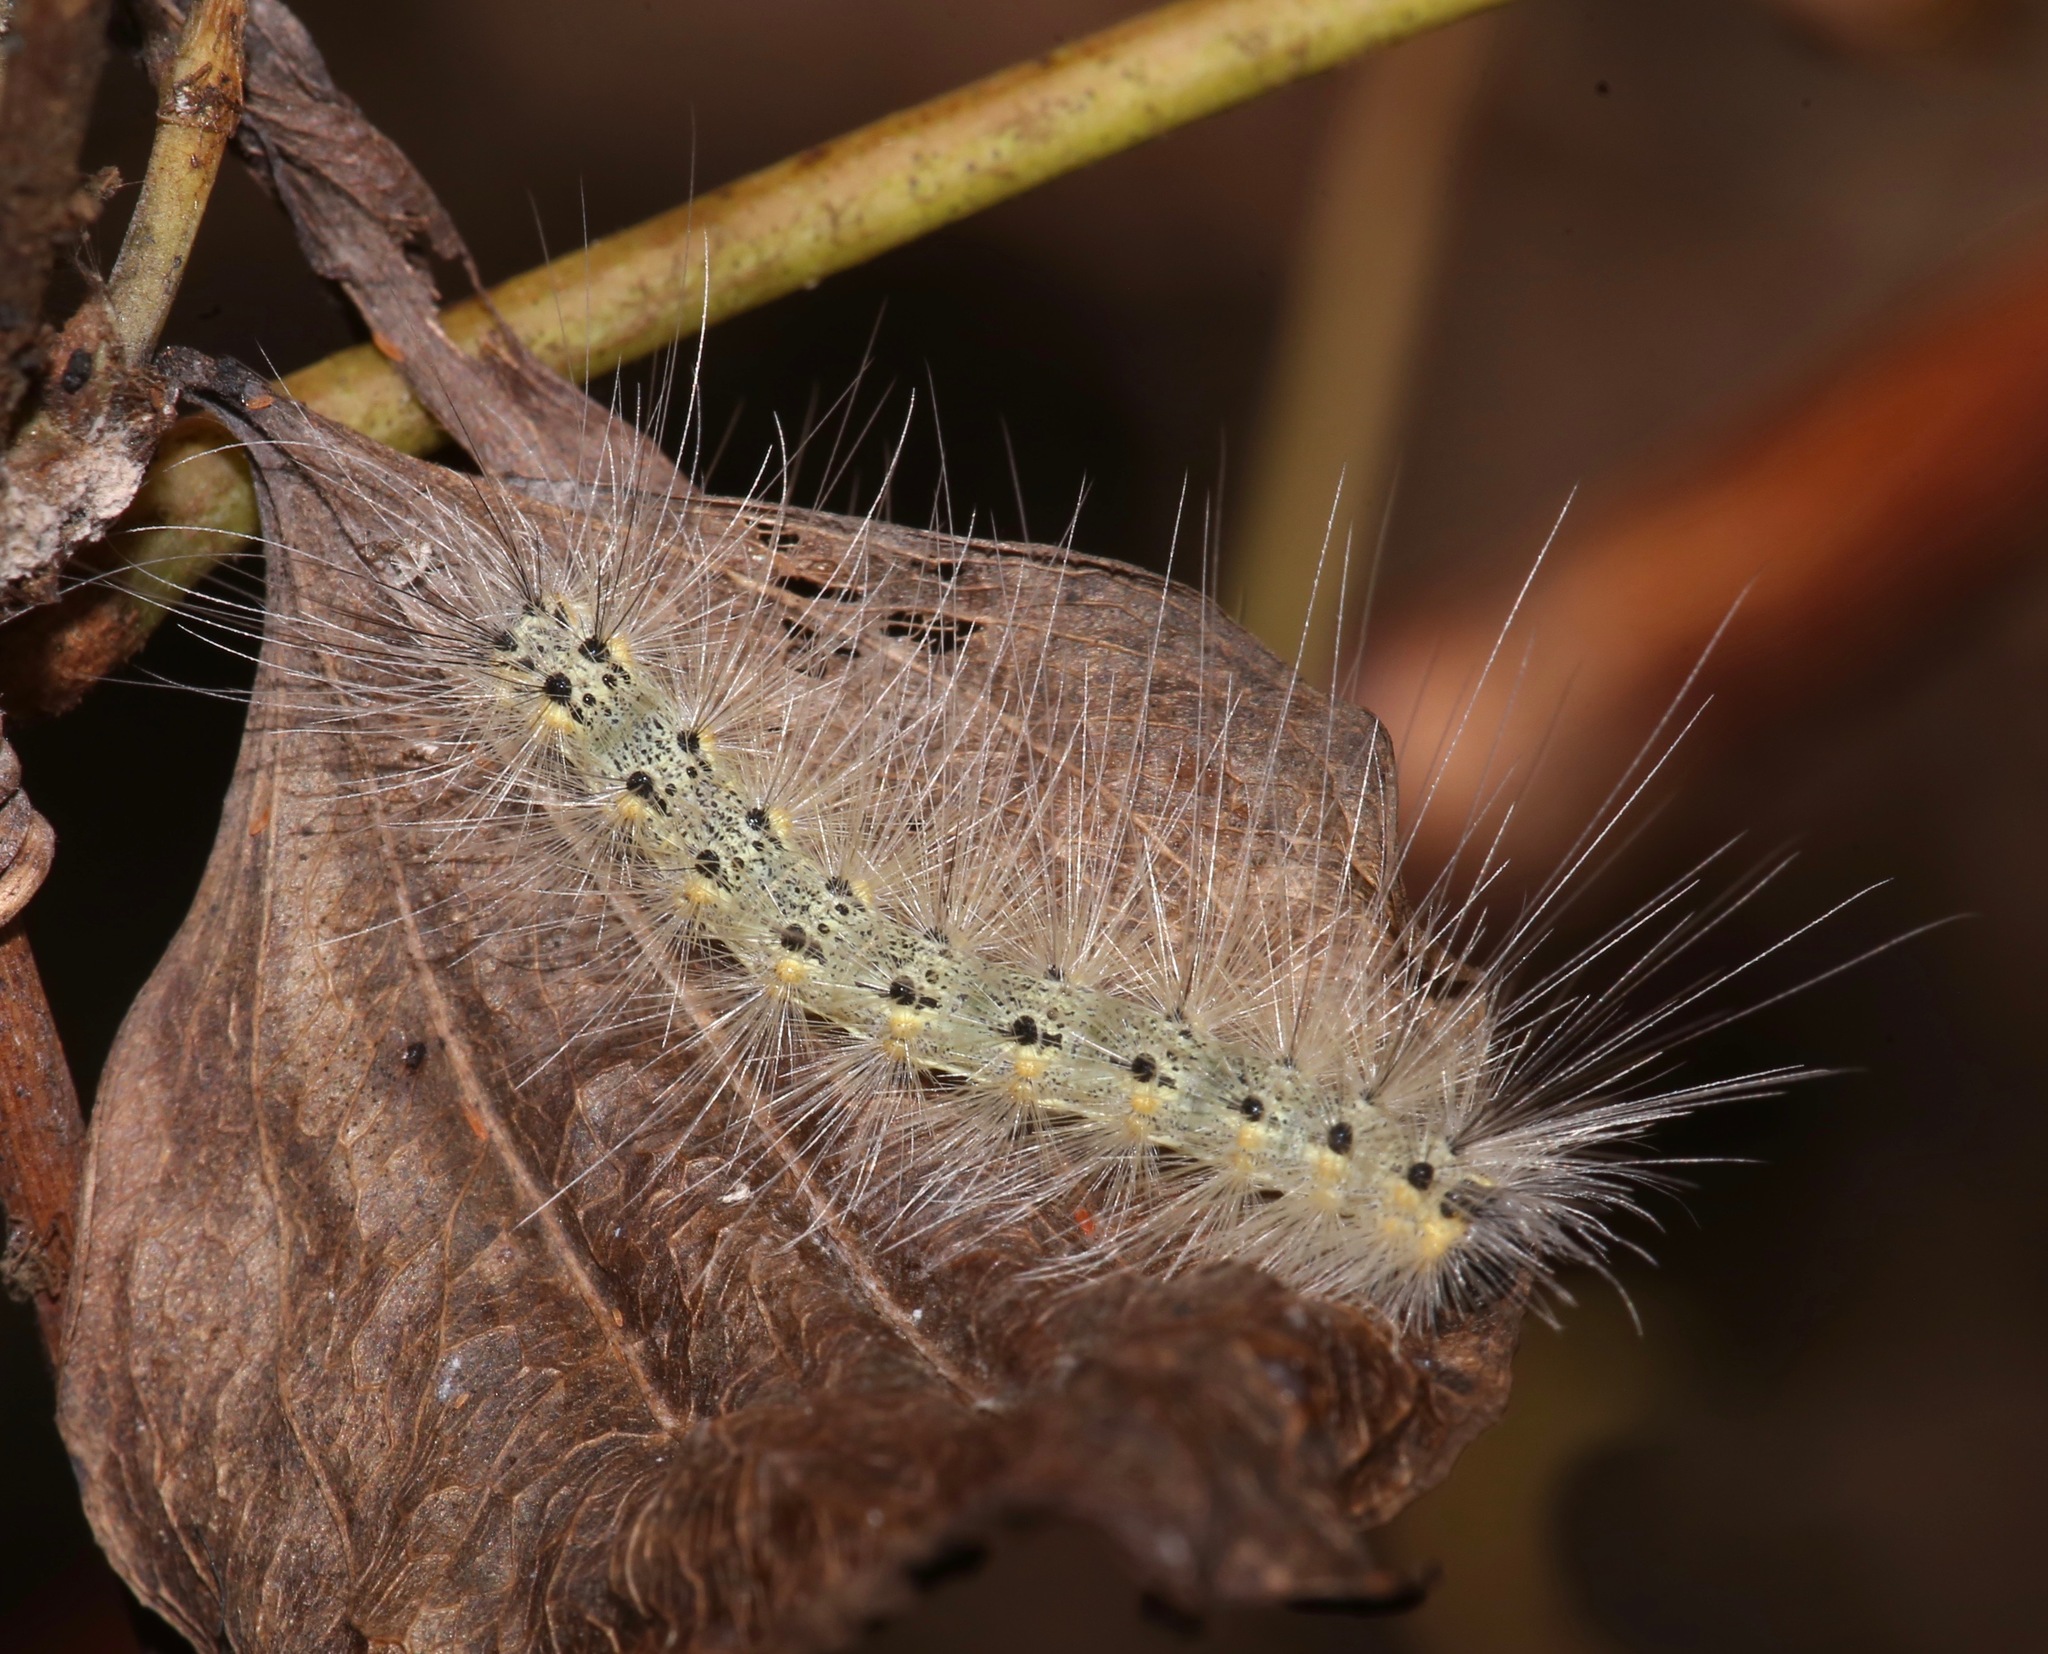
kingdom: Animalia
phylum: Arthropoda
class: Insecta
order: Lepidoptera
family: Erebidae
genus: Hyphantria
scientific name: Hyphantria cunea
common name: American white moth
